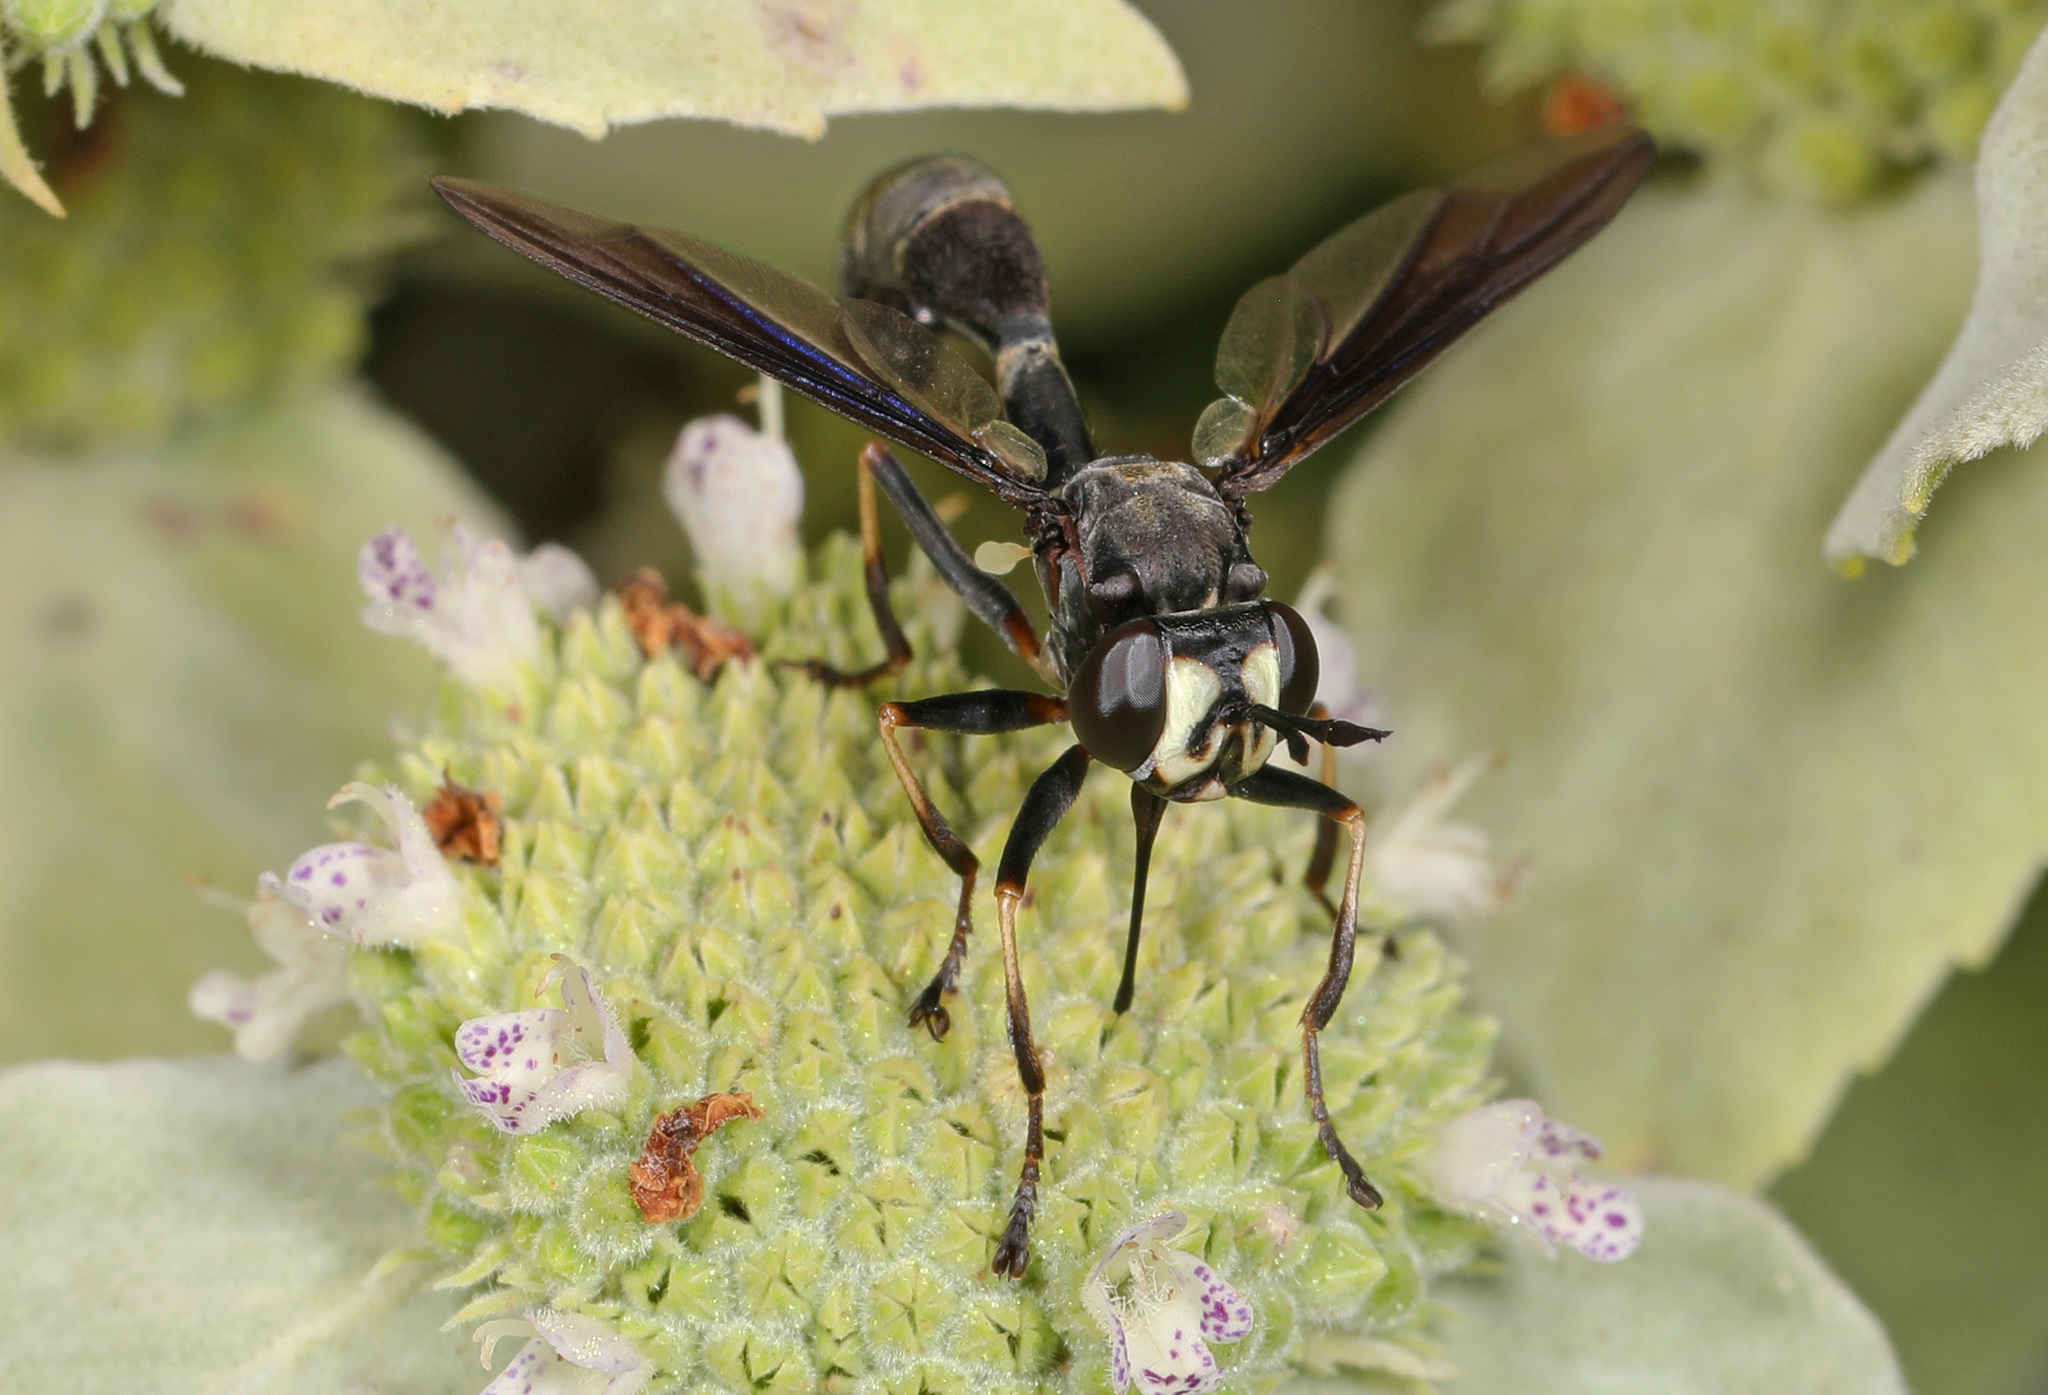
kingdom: Animalia
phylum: Arthropoda
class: Insecta
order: Diptera
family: Conopidae
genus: Physocephala
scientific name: Physocephala tibialis
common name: Common eastern physocephala
